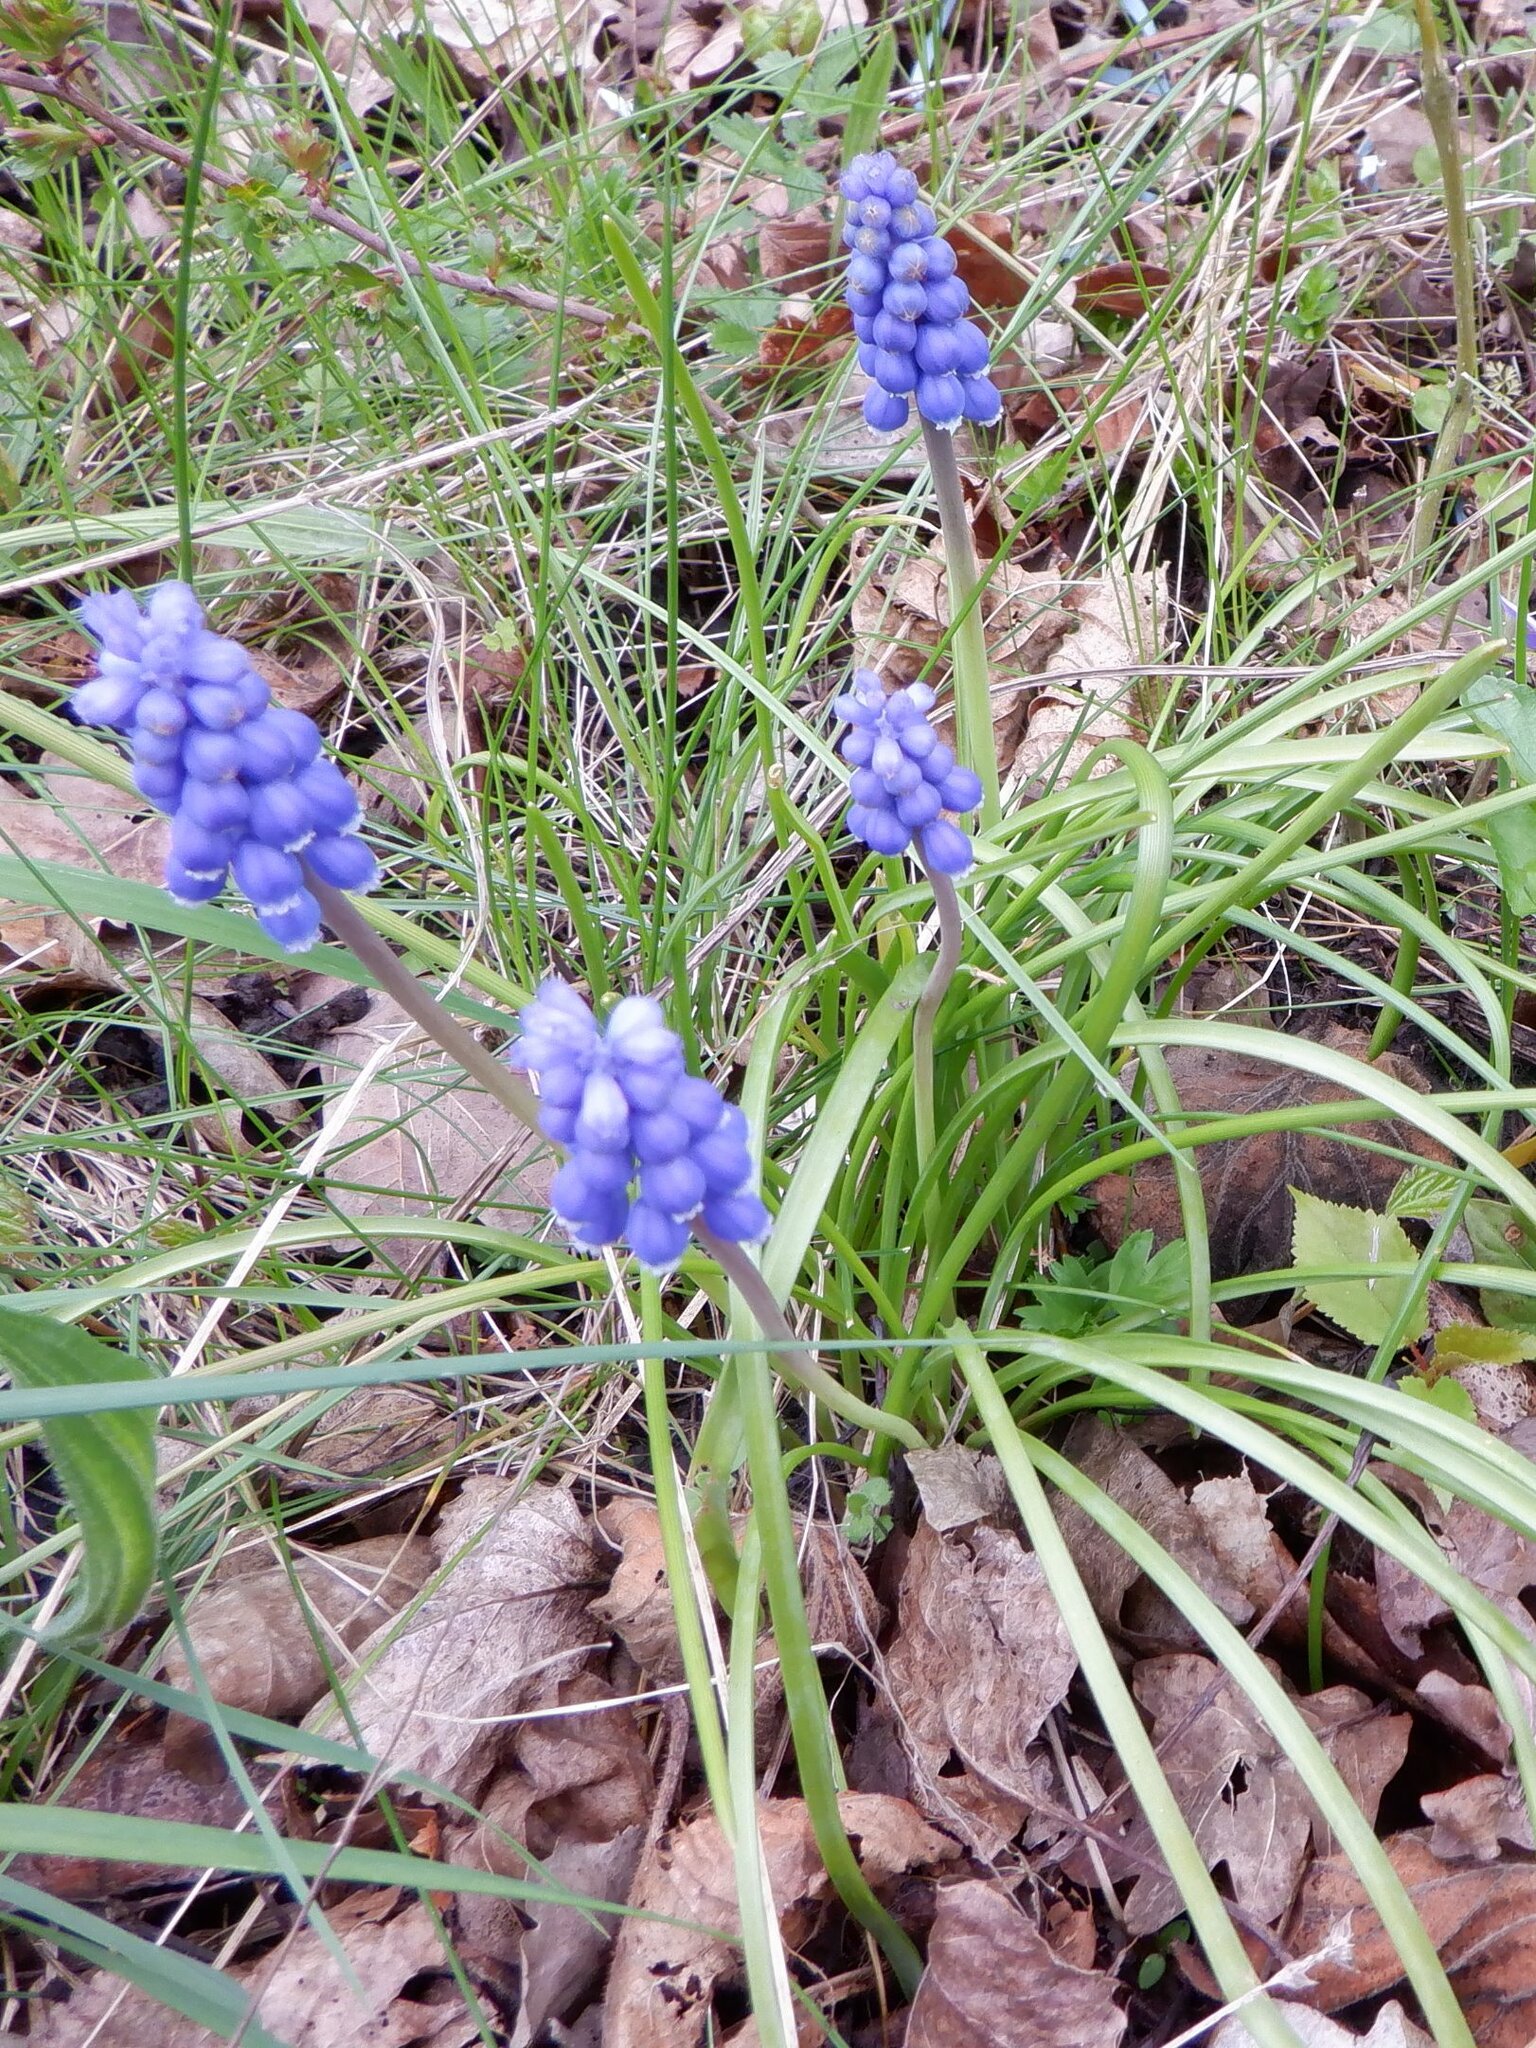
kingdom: Plantae
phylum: Tracheophyta
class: Liliopsida
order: Asparagales
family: Asparagaceae
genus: Muscari
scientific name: Muscari armeniacum
